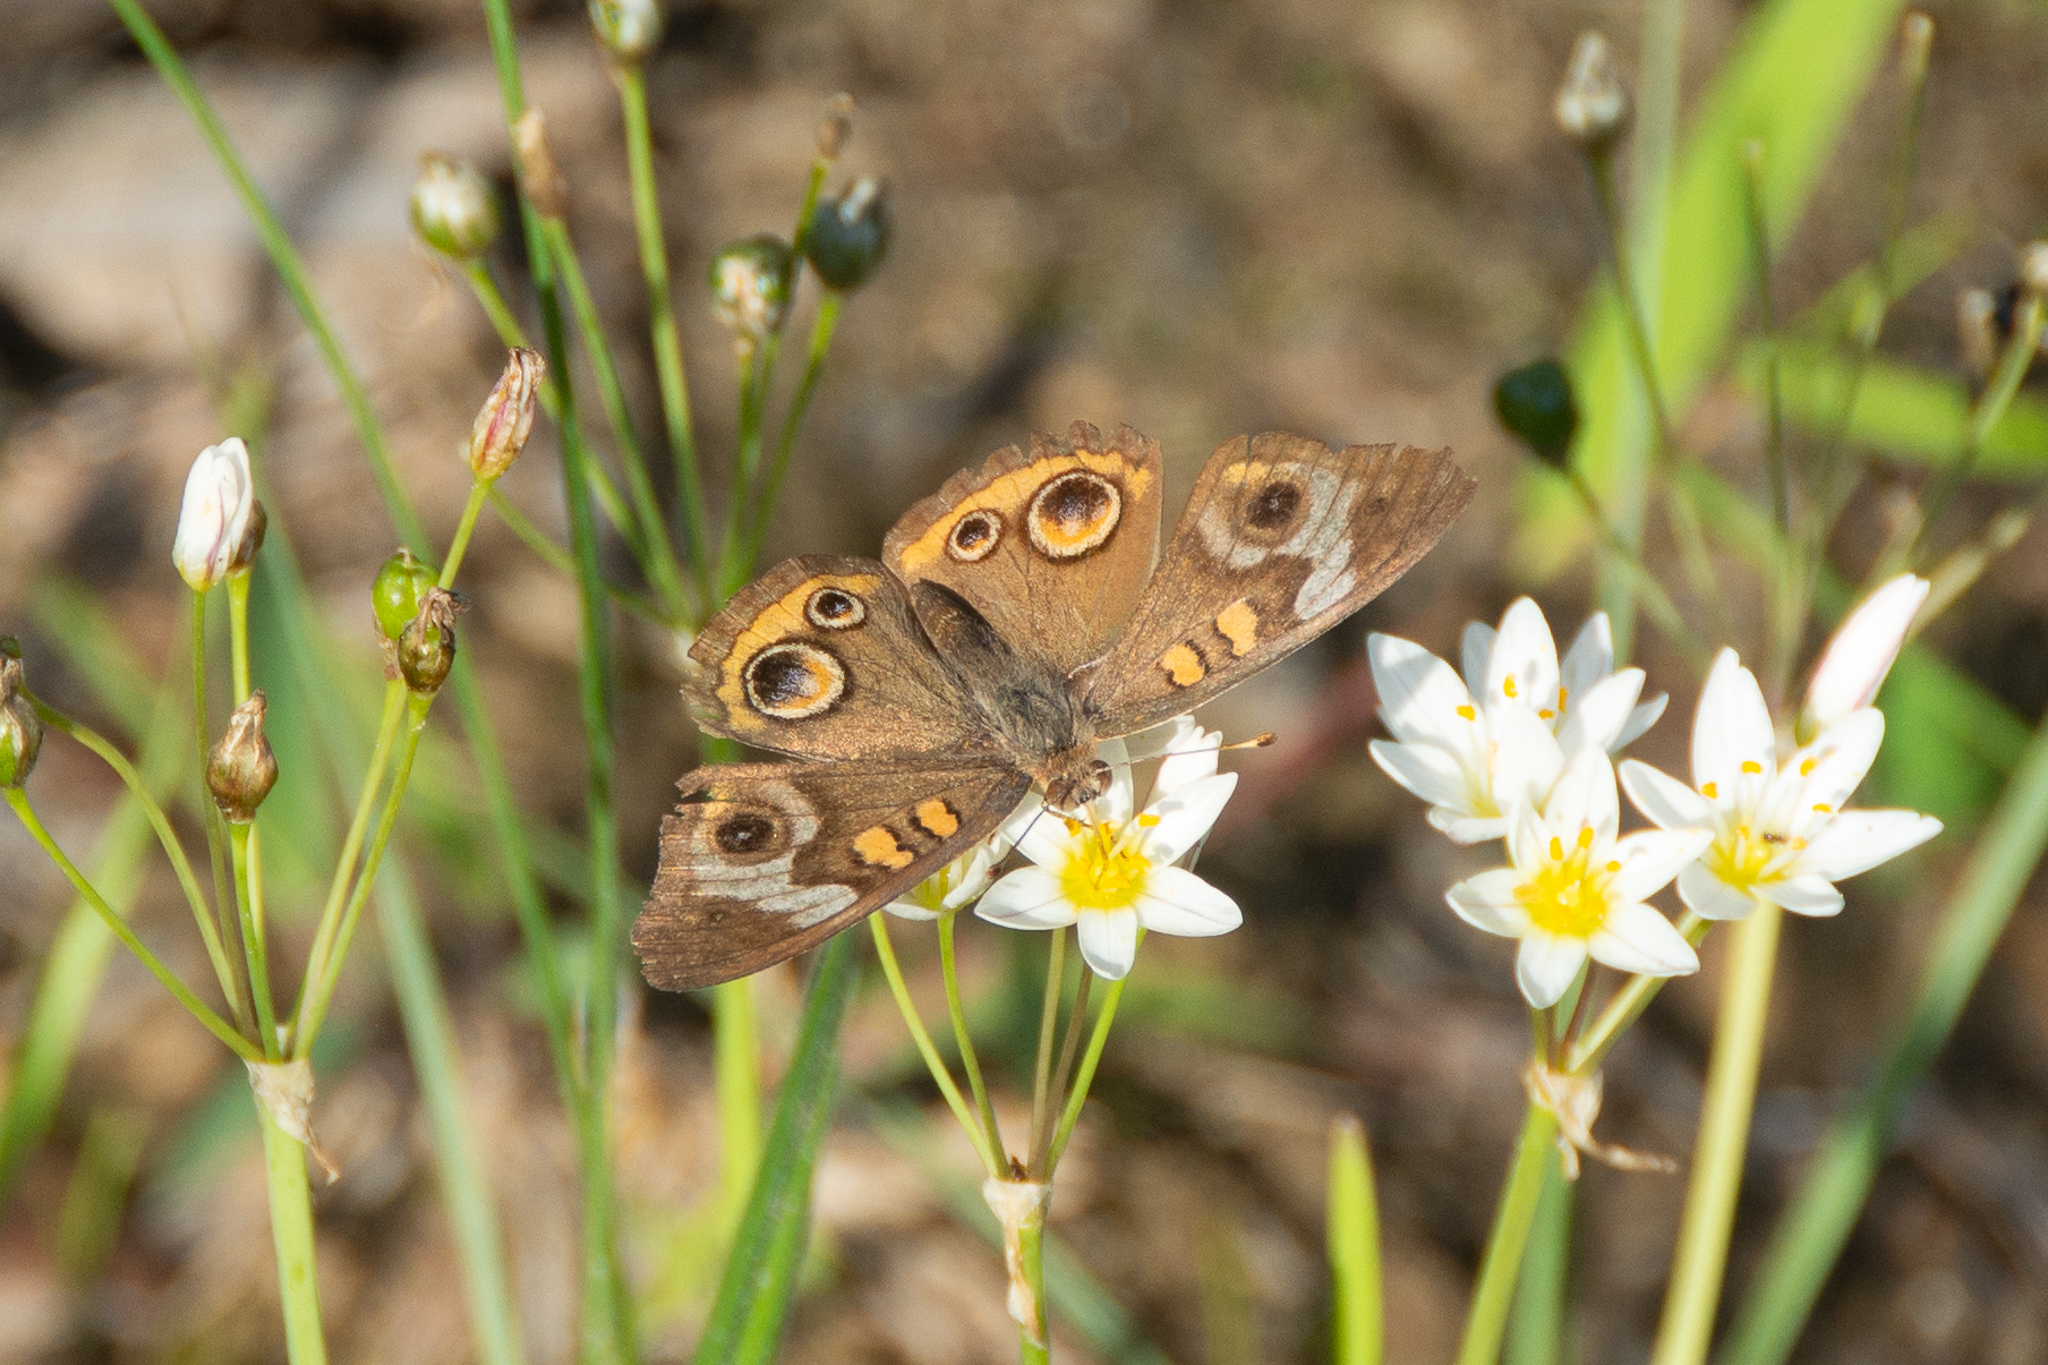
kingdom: Animalia
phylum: Arthropoda
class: Insecta
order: Lepidoptera
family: Nymphalidae
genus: Junonia
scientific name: Junonia coenia
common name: Common buckeye
